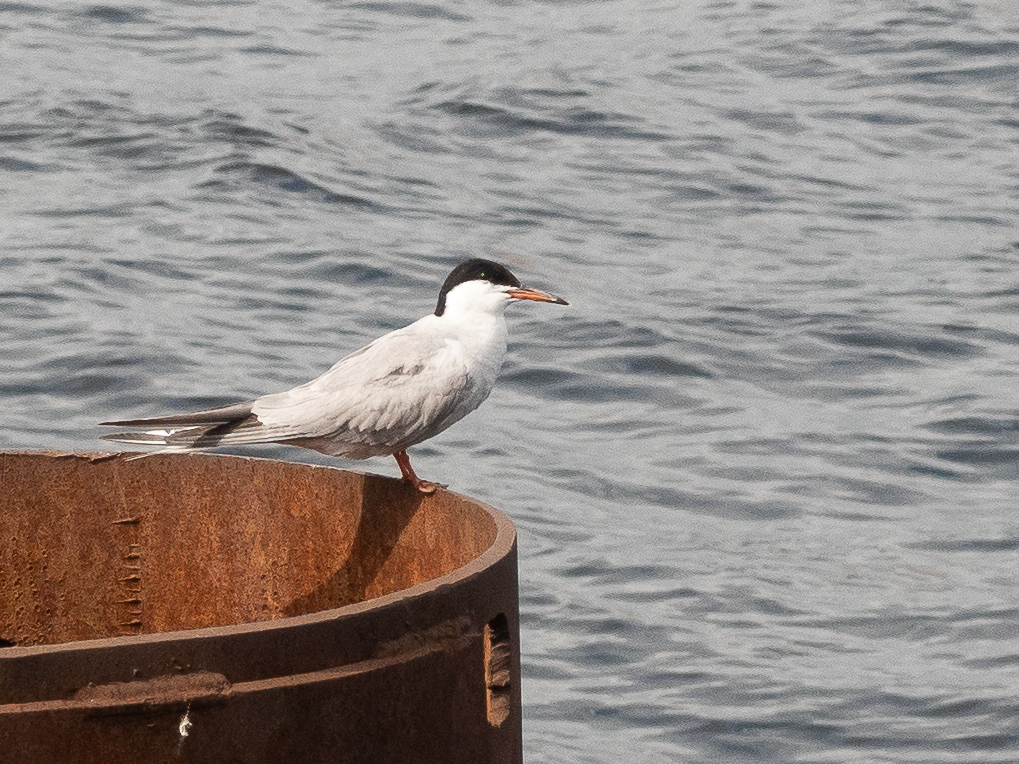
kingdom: Animalia
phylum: Chordata
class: Aves
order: Charadriiformes
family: Laridae
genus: Sterna
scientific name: Sterna hirundo
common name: Common tern
